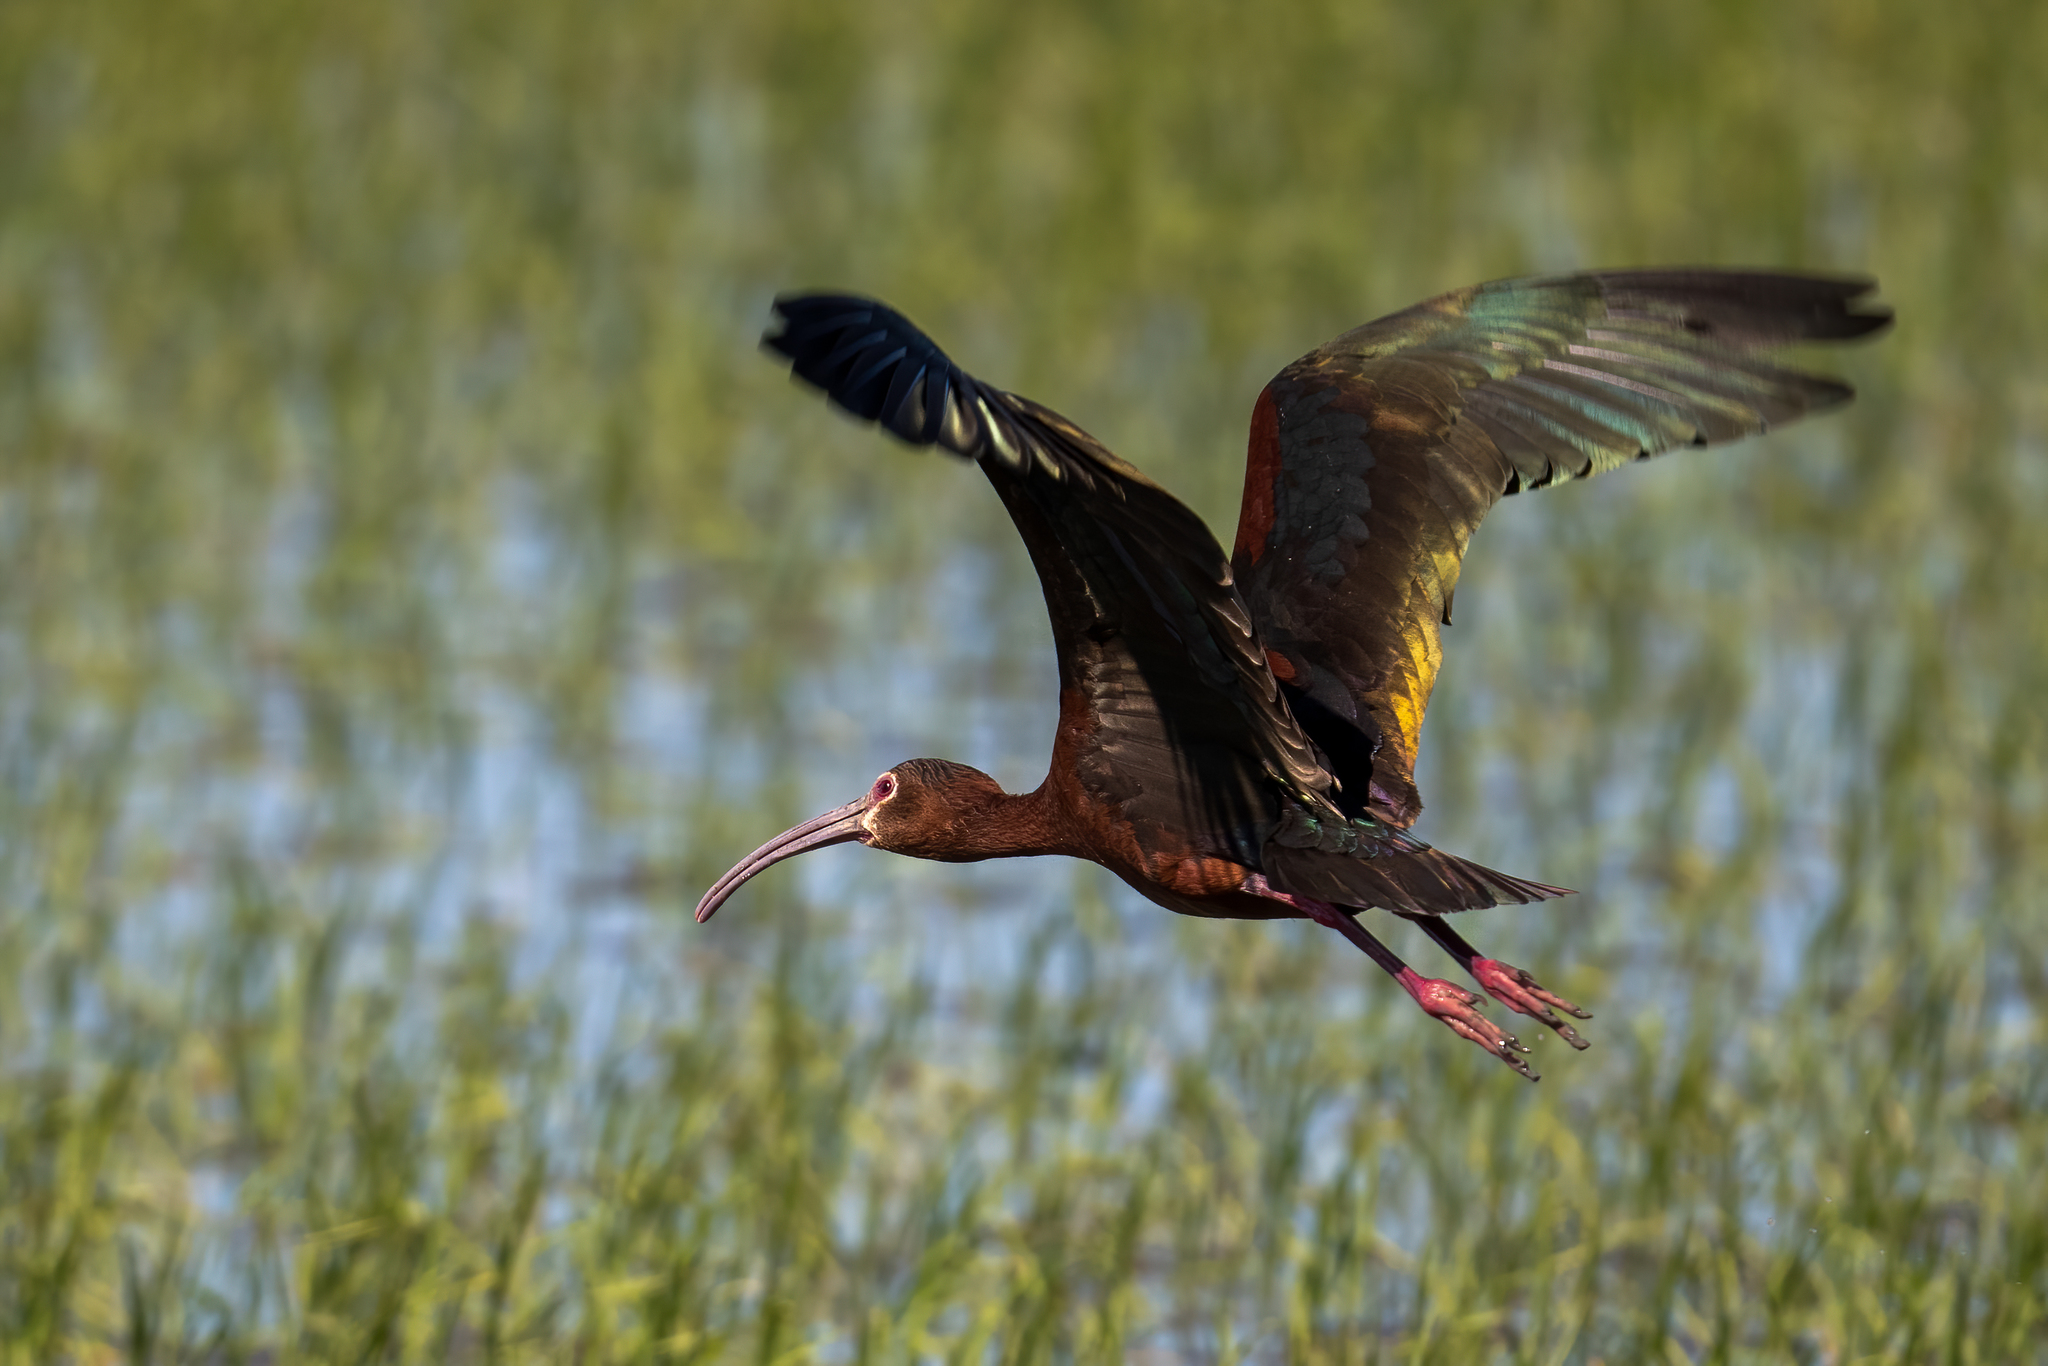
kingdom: Animalia
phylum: Chordata
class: Aves
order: Pelecaniformes
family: Threskiornithidae
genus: Plegadis
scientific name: Plegadis chihi
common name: White-faced ibis
